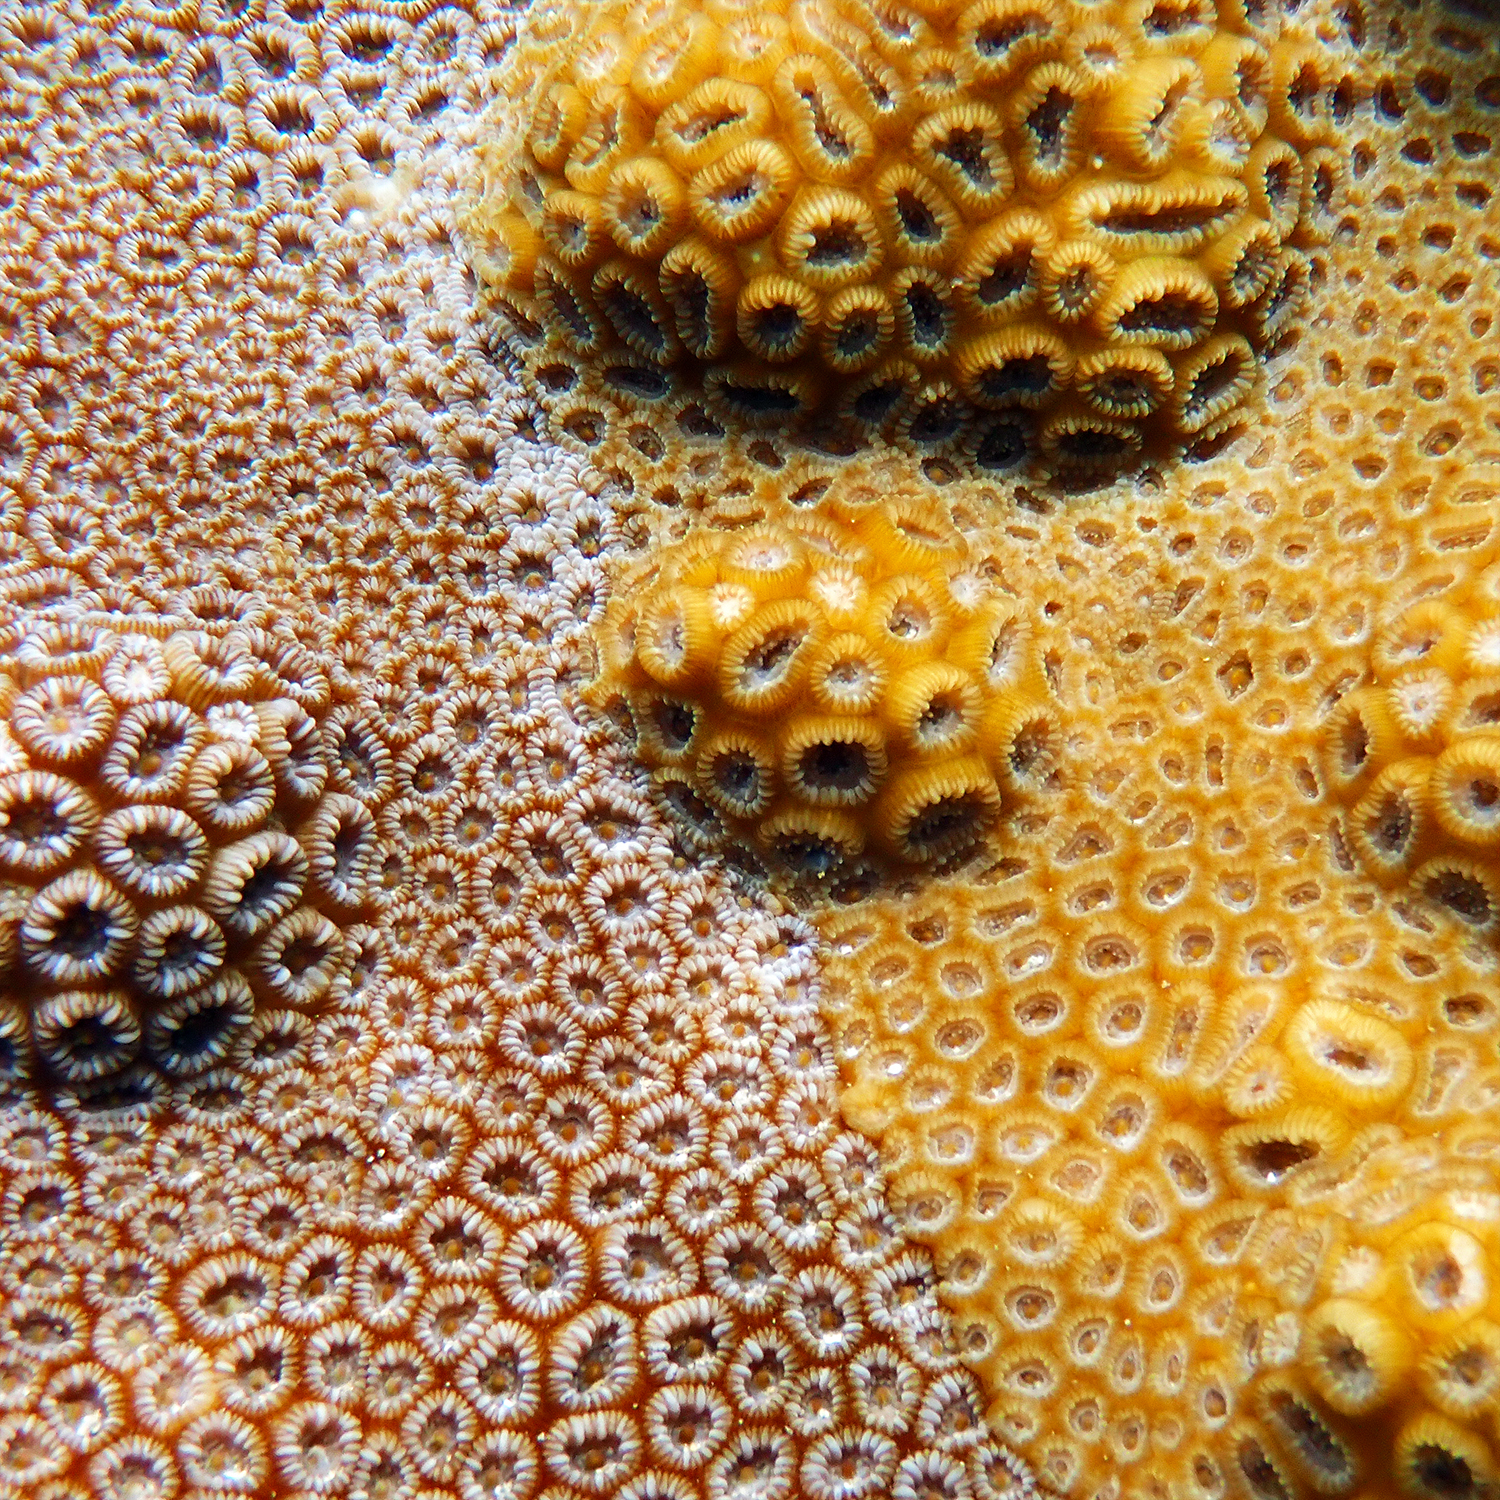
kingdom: Animalia
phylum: Cnidaria
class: Anthozoa
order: Scleractinia
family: Merulinidae
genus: Astrea
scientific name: Astrea curta
